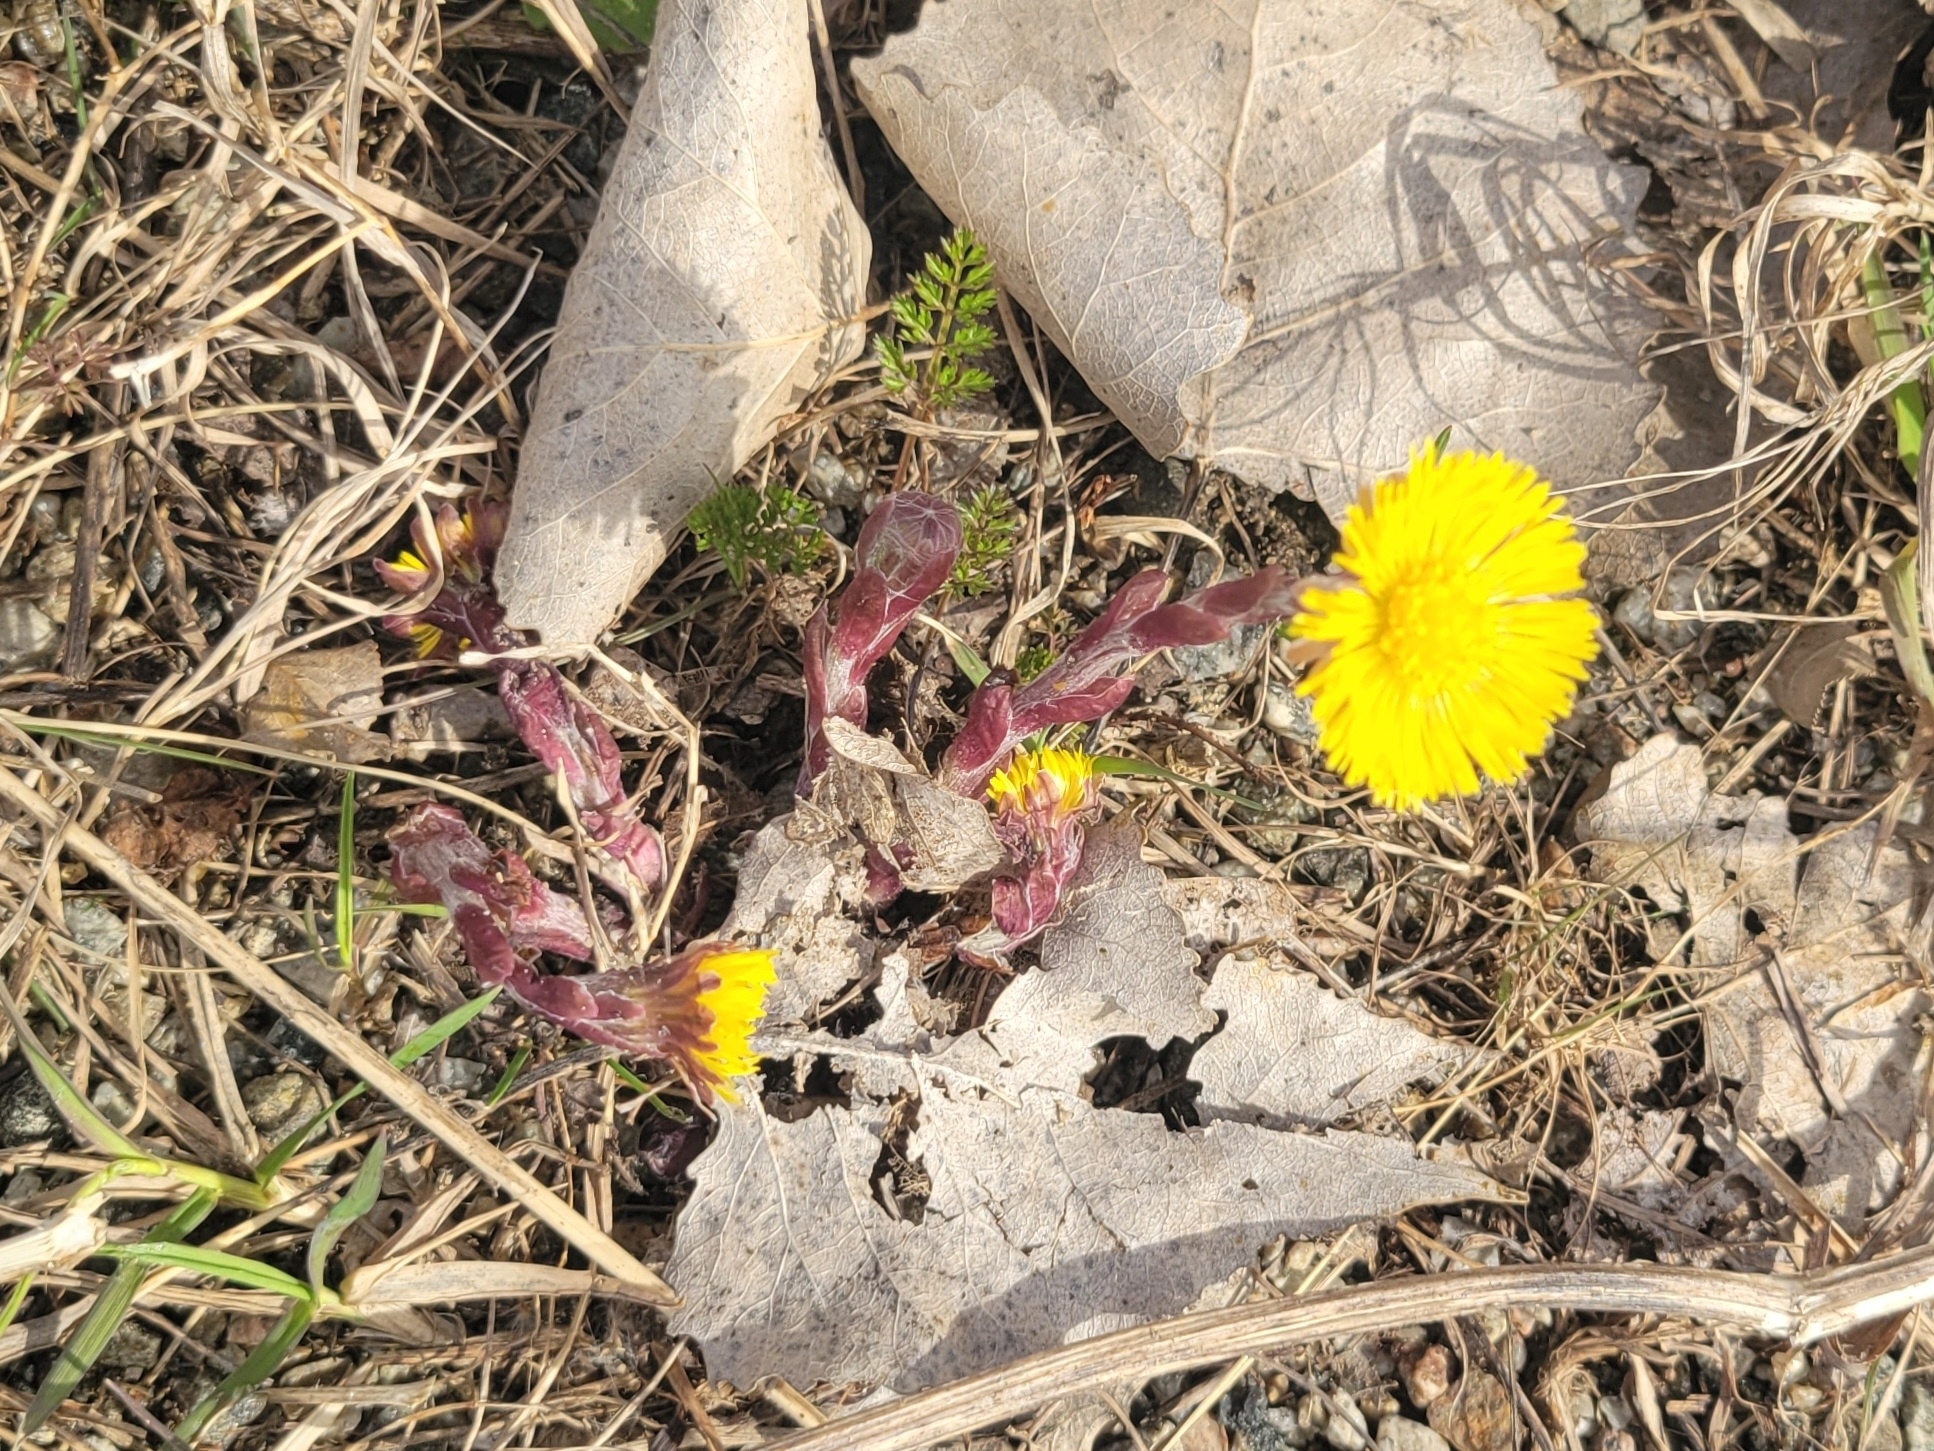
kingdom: Plantae
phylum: Tracheophyta
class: Magnoliopsida
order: Asterales
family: Asteraceae
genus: Tussilago
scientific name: Tussilago farfara
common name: Coltsfoot
